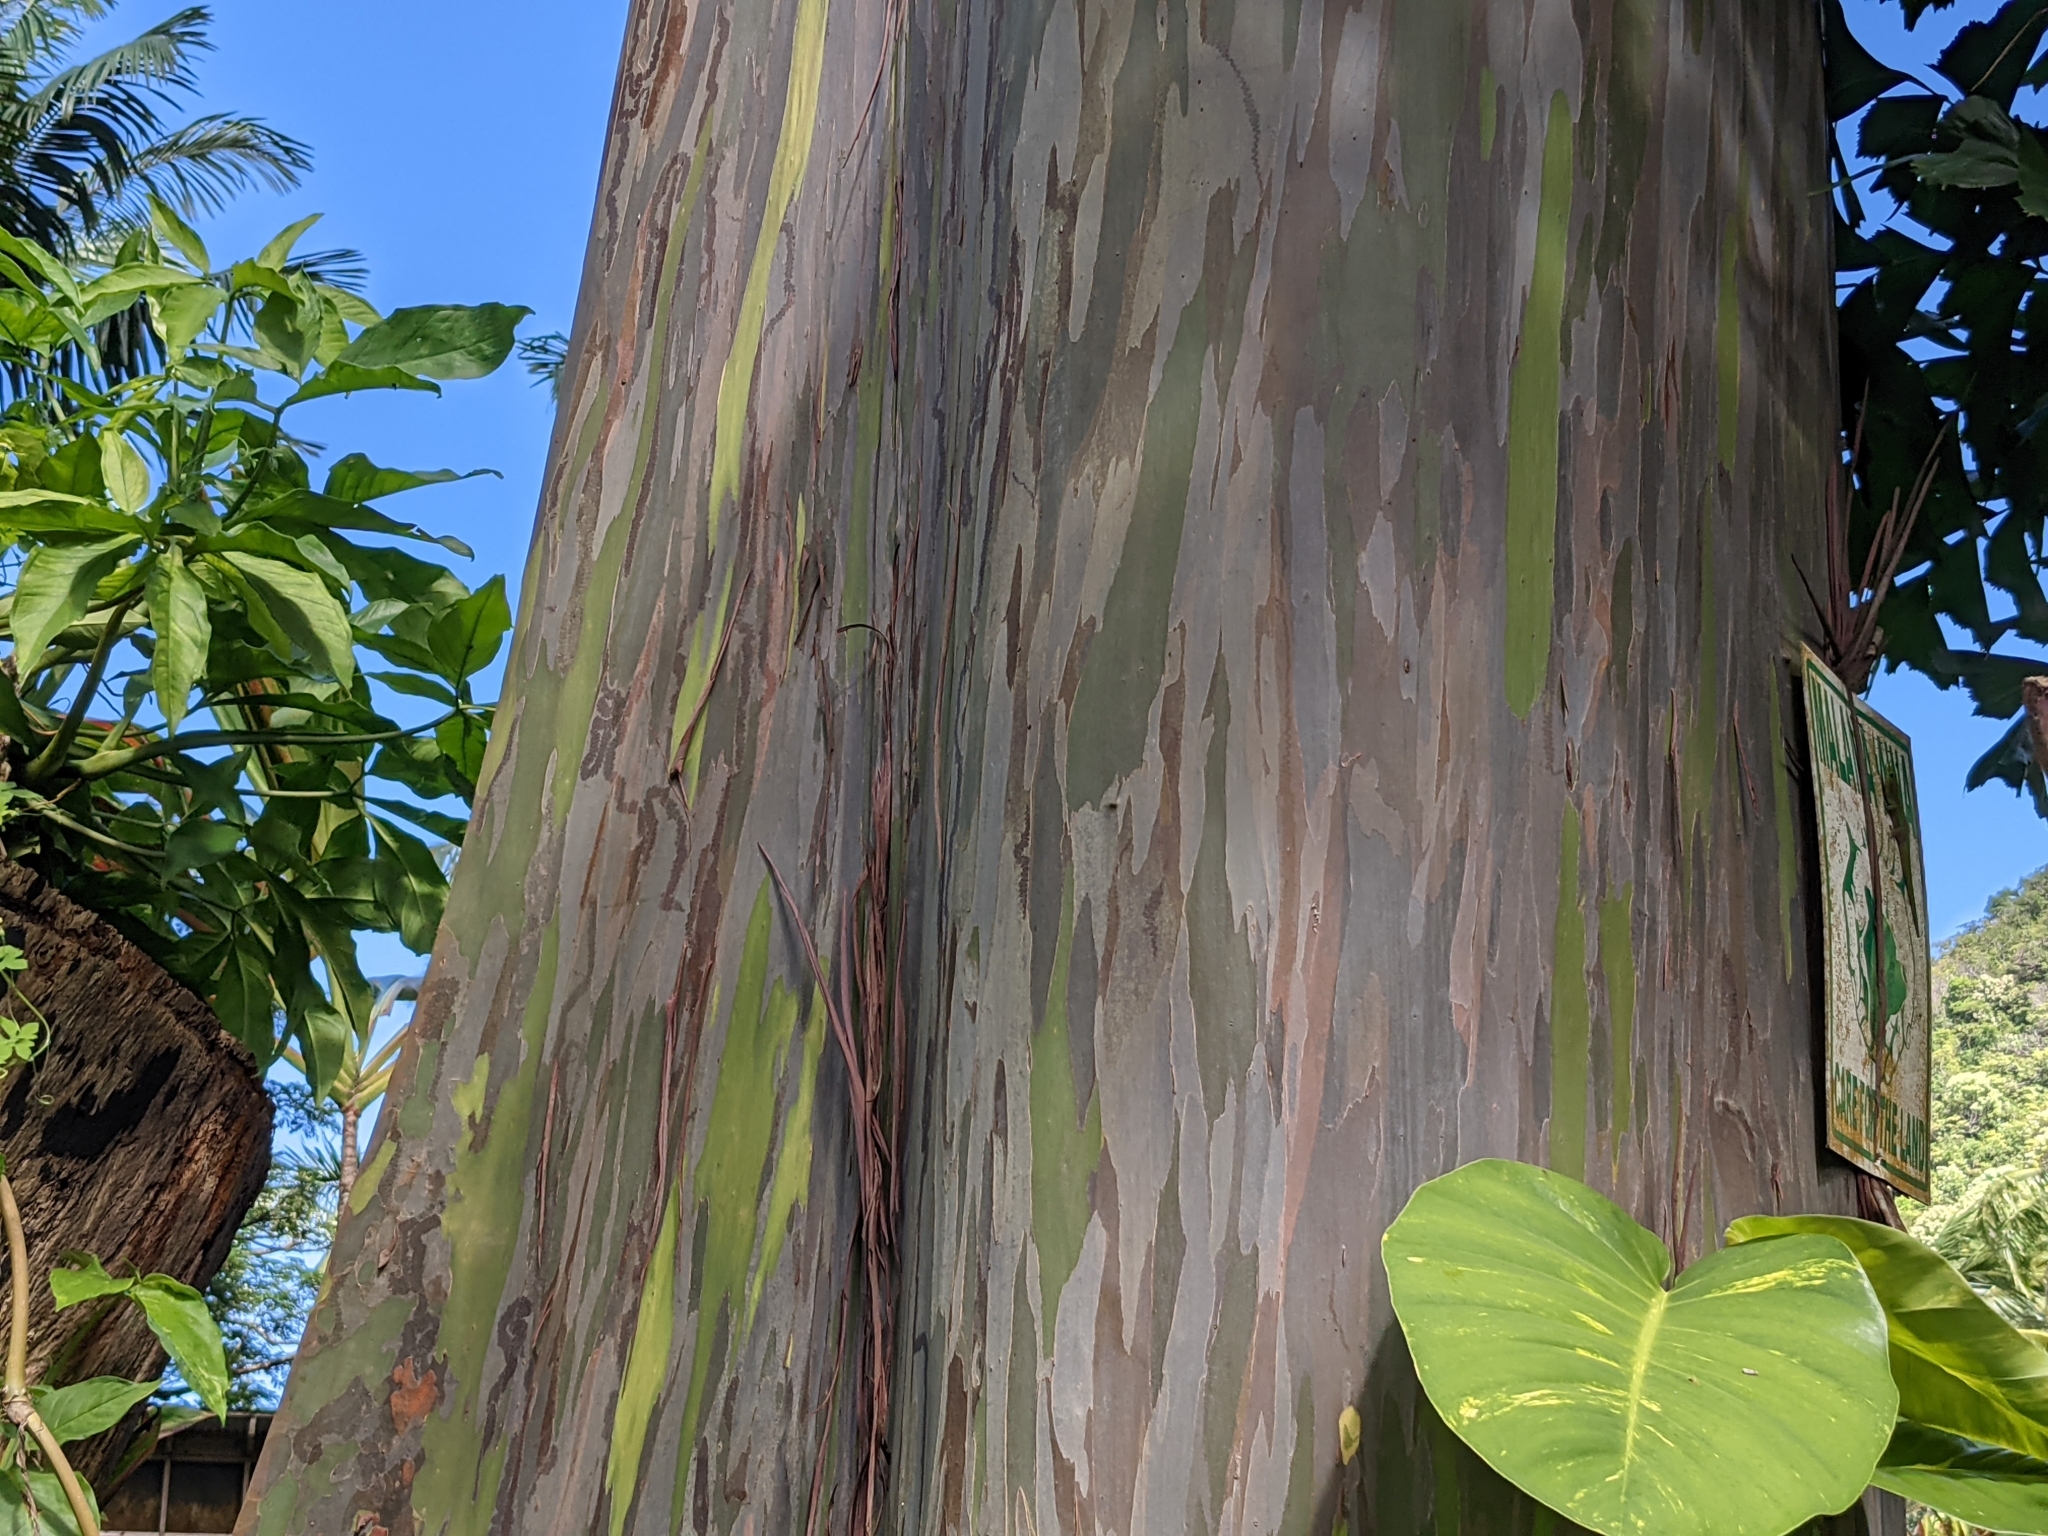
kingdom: Plantae
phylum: Tracheophyta
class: Magnoliopsida
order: Myrtales
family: Myrtaceae
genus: Eucalyptus
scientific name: Eucalyptus deglupta
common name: Mindanao gum
